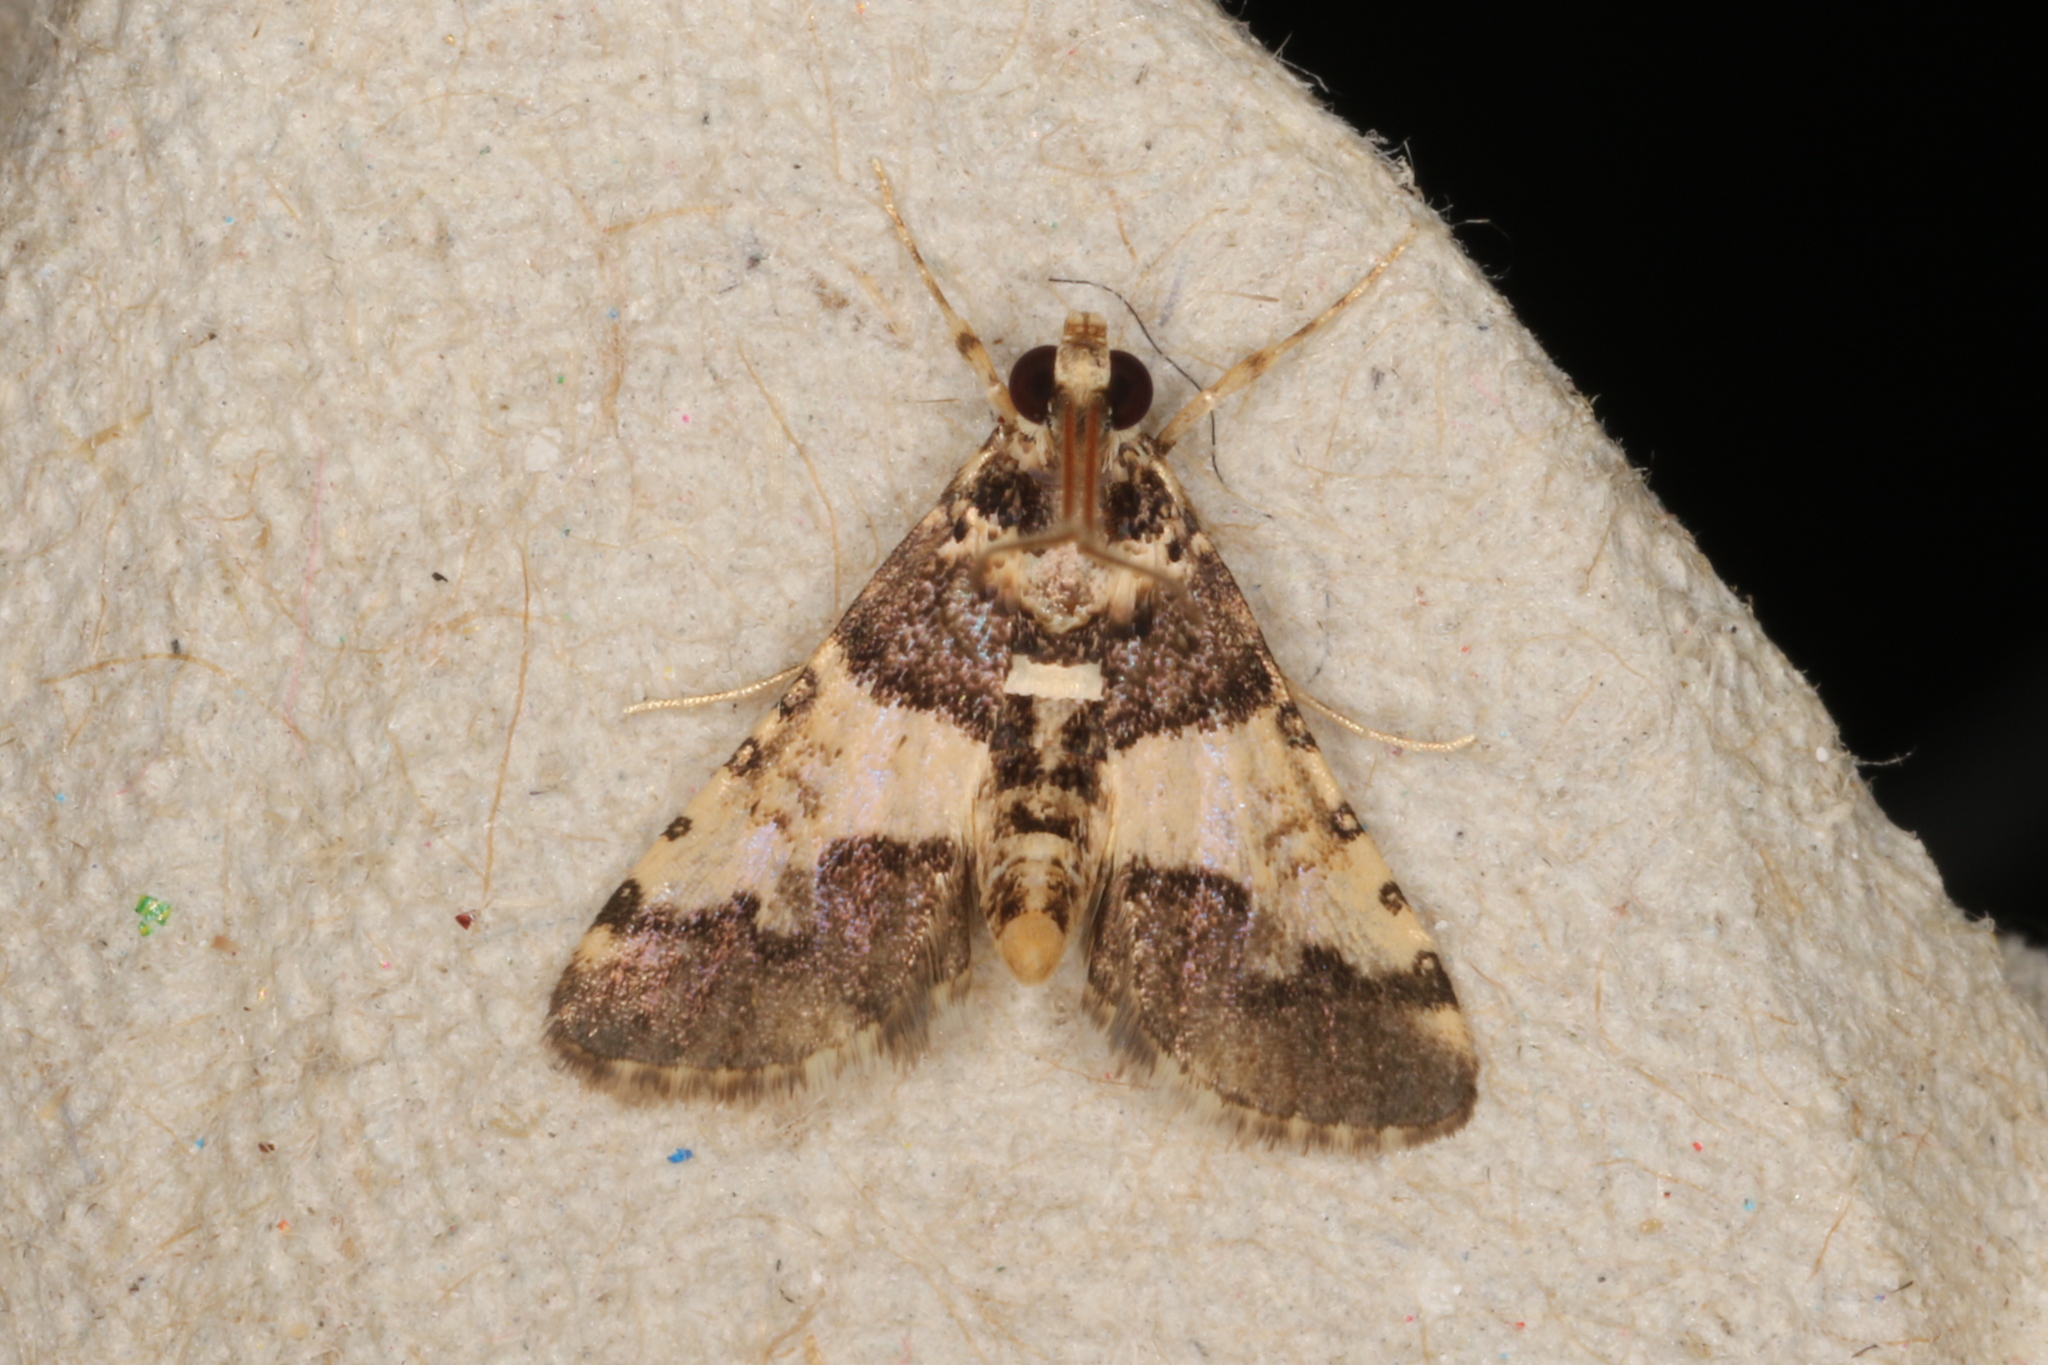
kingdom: Animalia
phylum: Arthropoda
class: Insecta
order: Lepidoptera
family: Crambidae
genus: Nacoleia
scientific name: Nacoleia mesochlora
